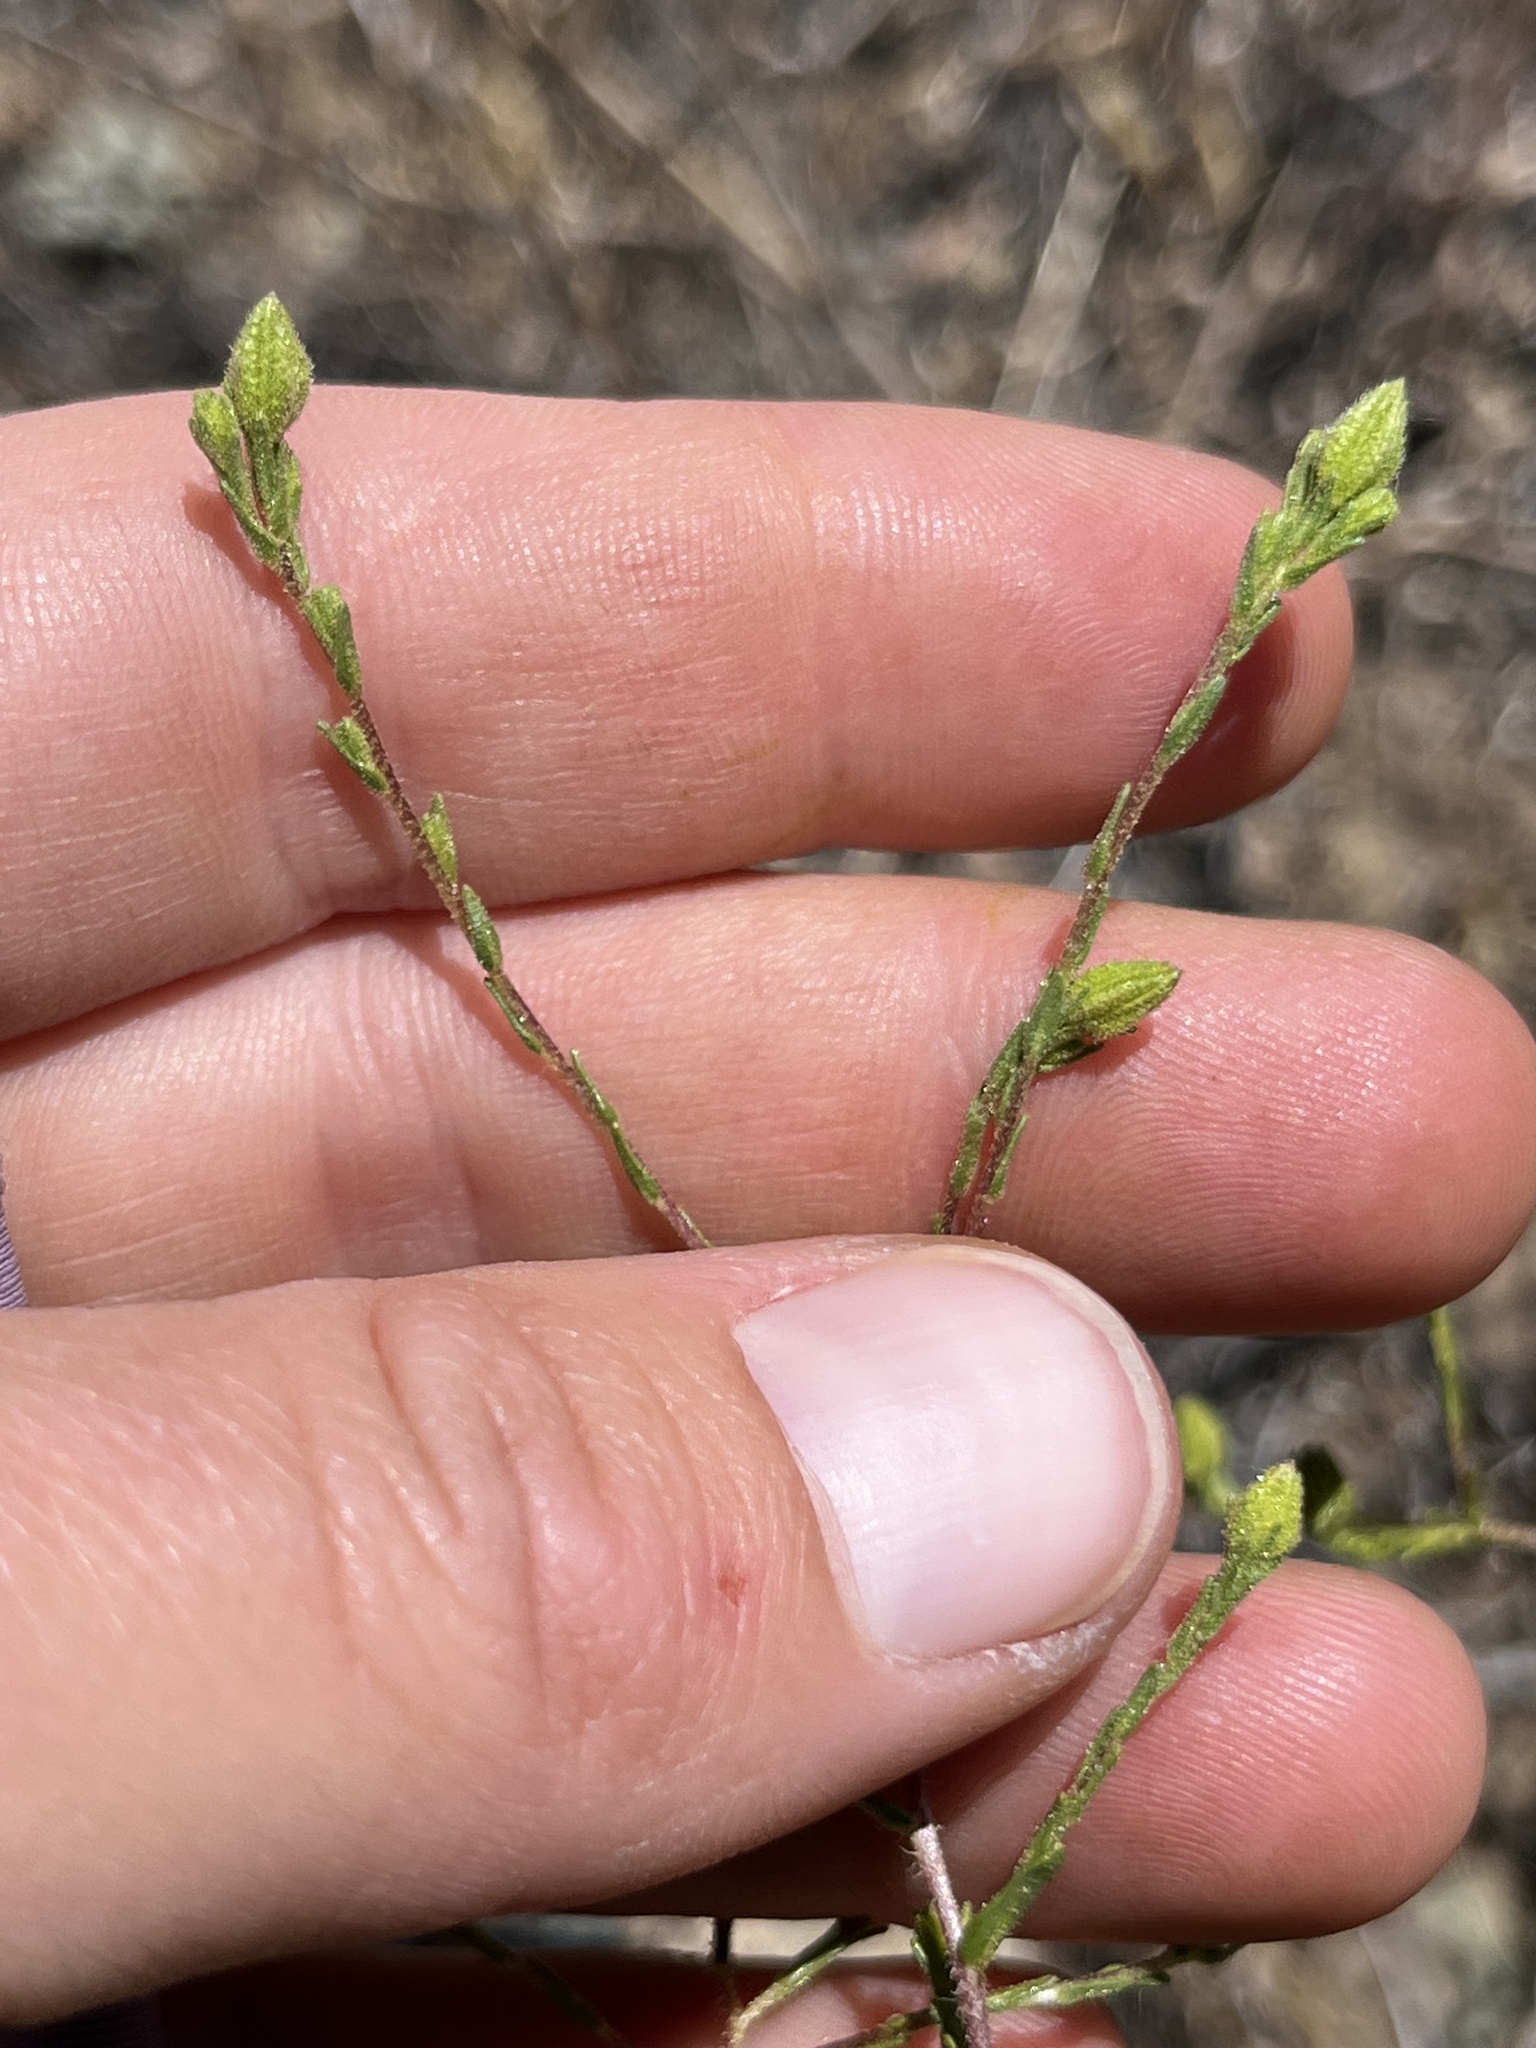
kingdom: Plantae
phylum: Tracheophyta
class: Magnoliopsida
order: Asterales
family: Asteraceae
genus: Deinandra
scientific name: Deinandra pentactis
